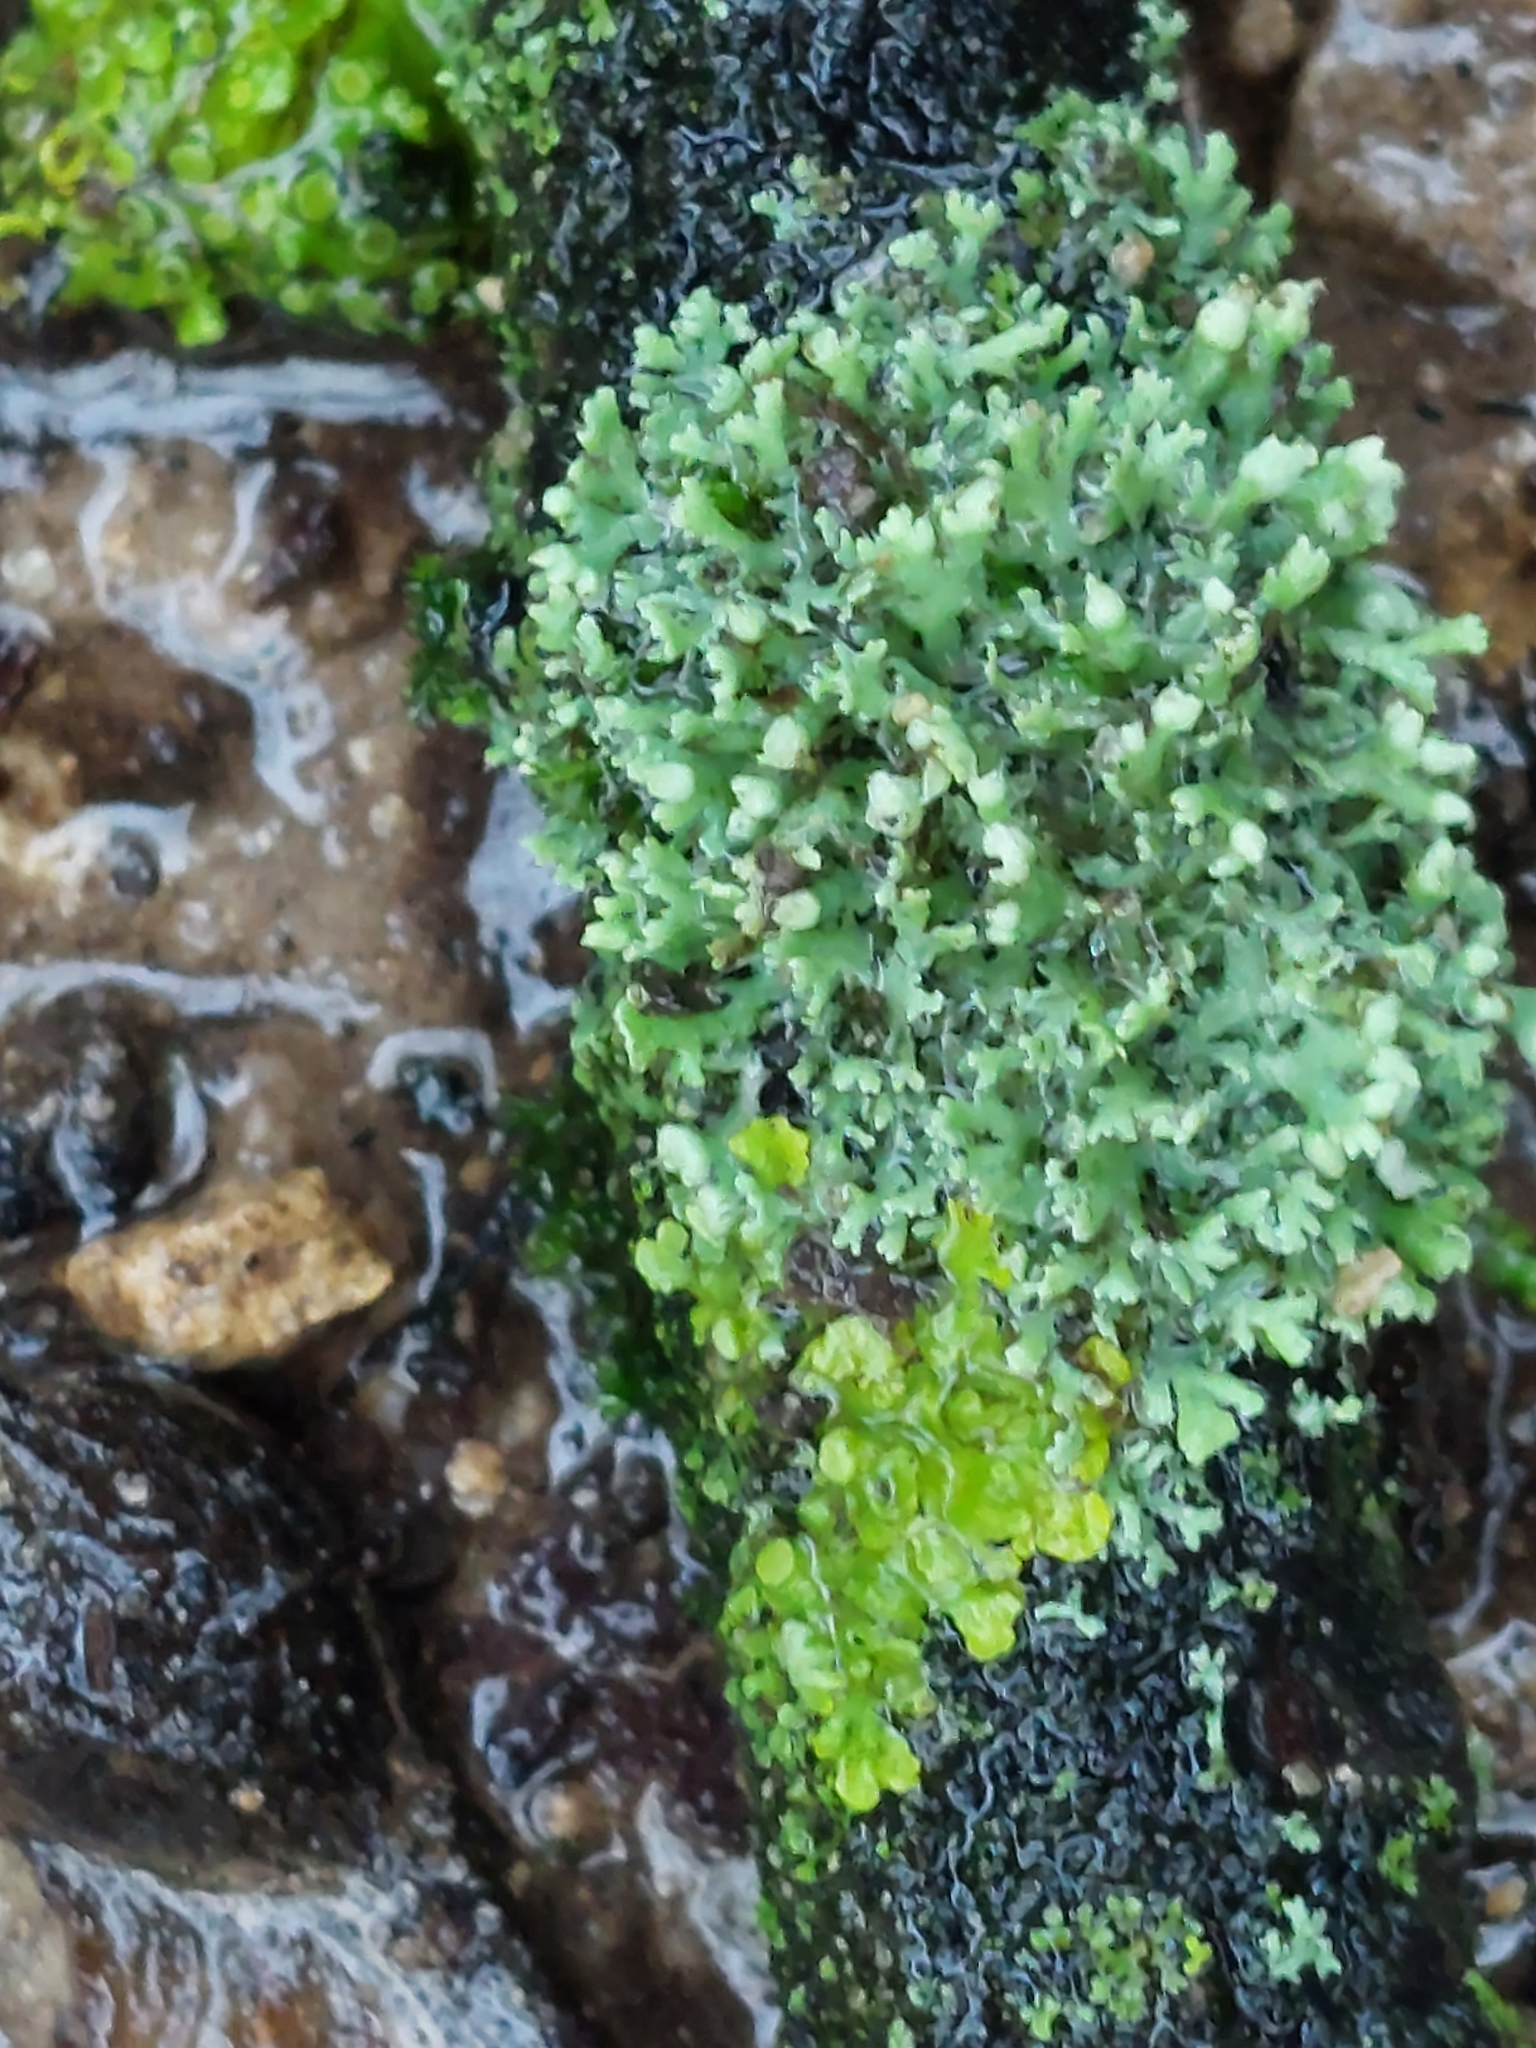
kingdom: Fungi
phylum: Ascomycota
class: Lecanoromycetes
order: Caliciales
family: Physciaceae
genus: Physcia
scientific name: Physcia adscendens
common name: Hooded rosette lichen
